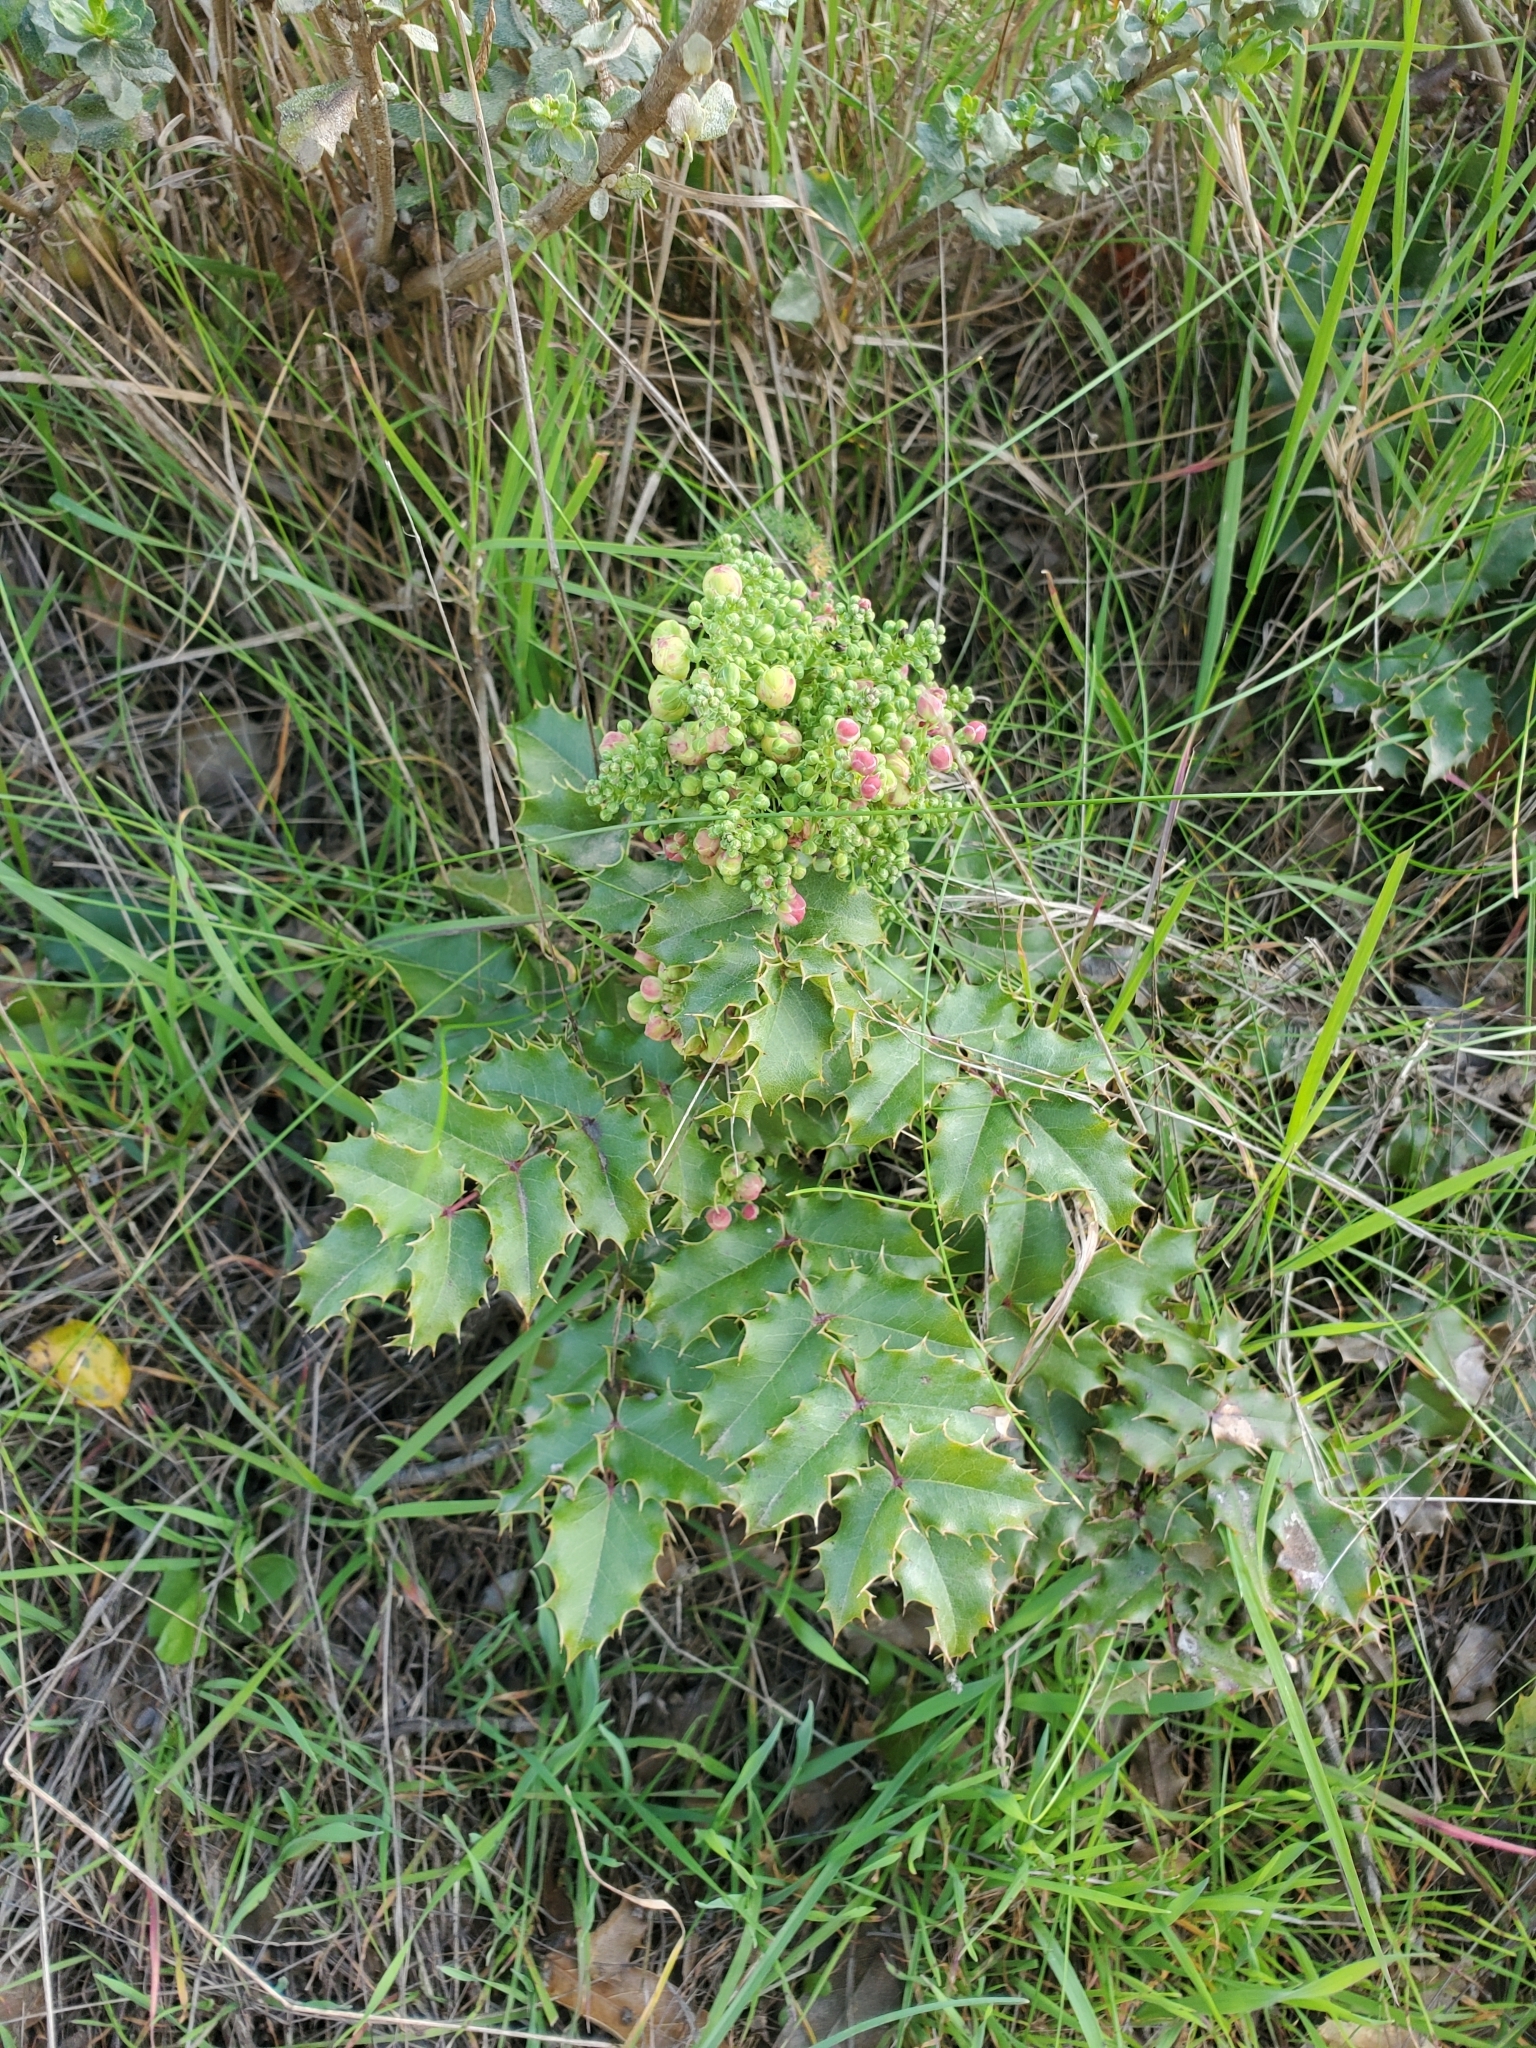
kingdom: Plantae
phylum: Tracheophyta
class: Magnoliopsida
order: Ranunculales
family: Berberidaceae
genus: Mahonia
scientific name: Mahonia
